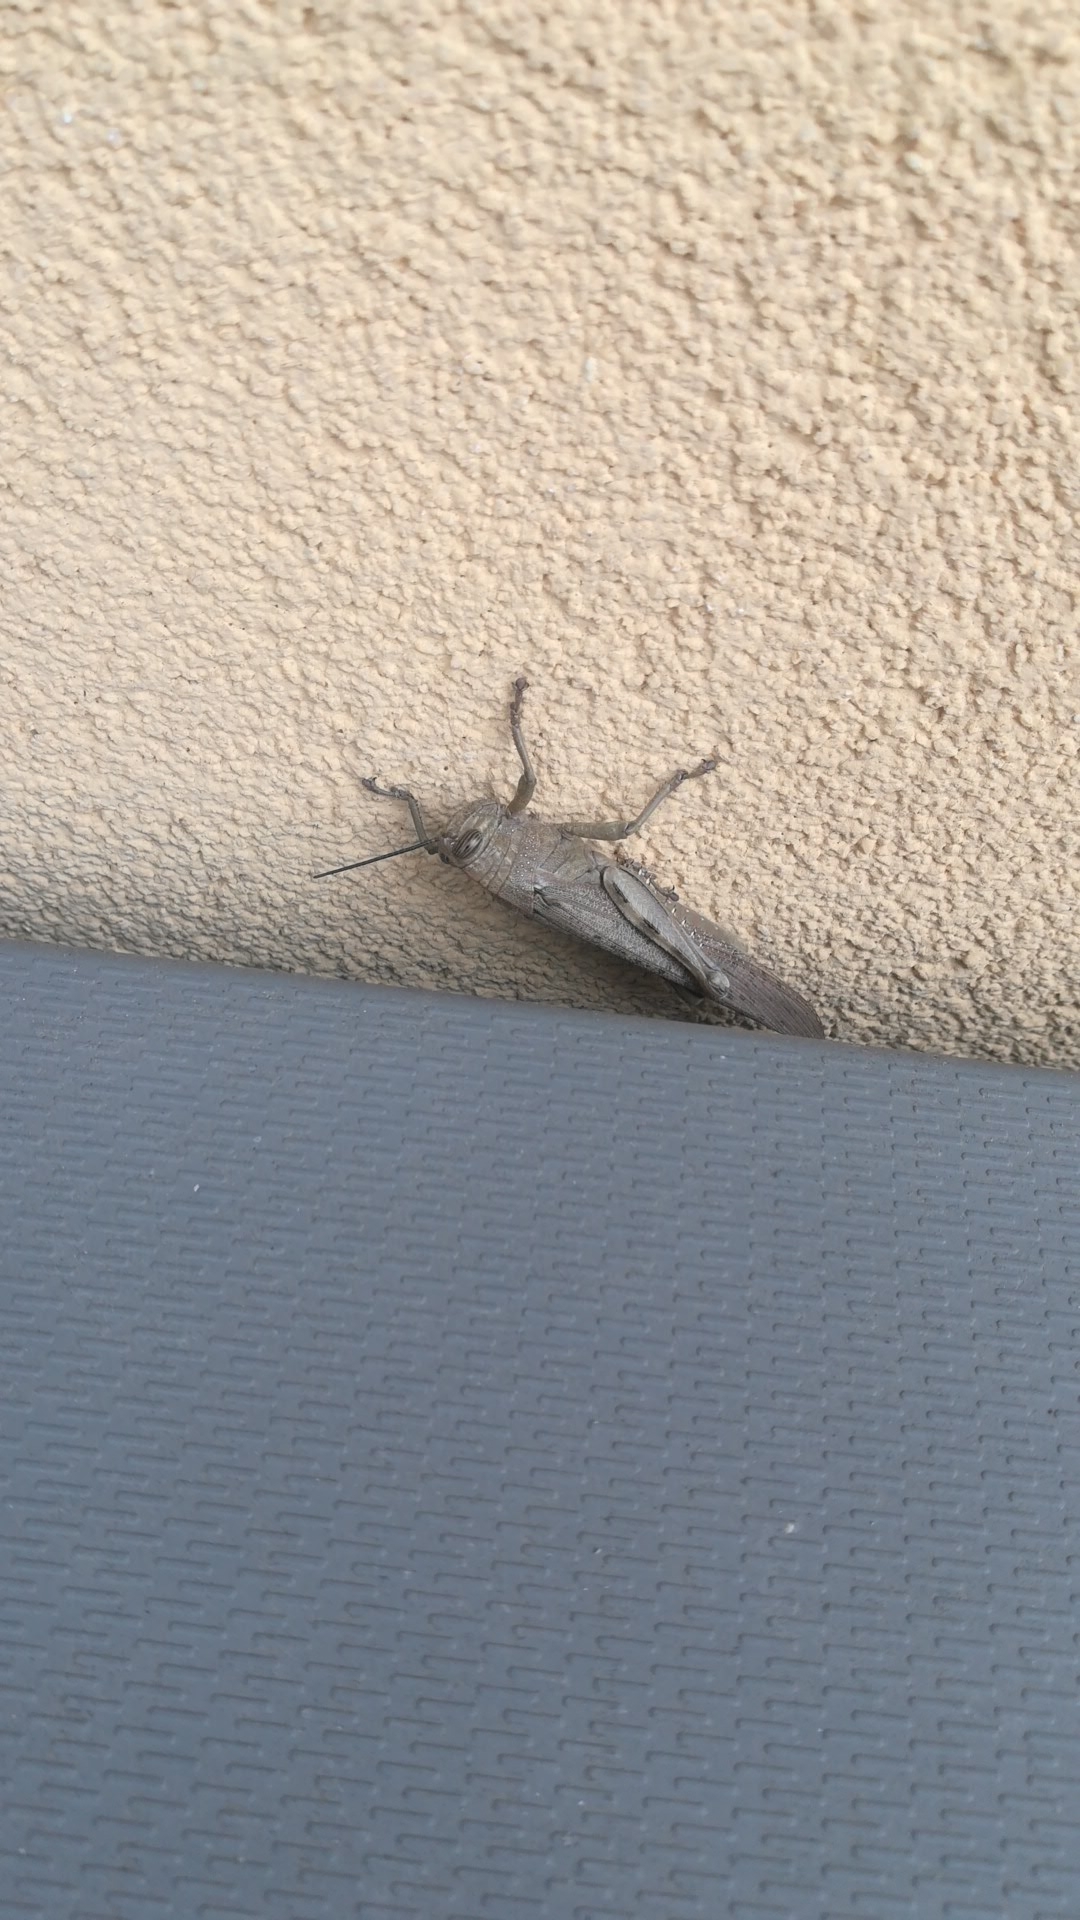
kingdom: Animalia
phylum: Arthropoda
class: Insecta
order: Orthoptera
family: Acrididae
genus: Anacridium
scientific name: Anacridium aegyptium
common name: Egyptian grasshopper
